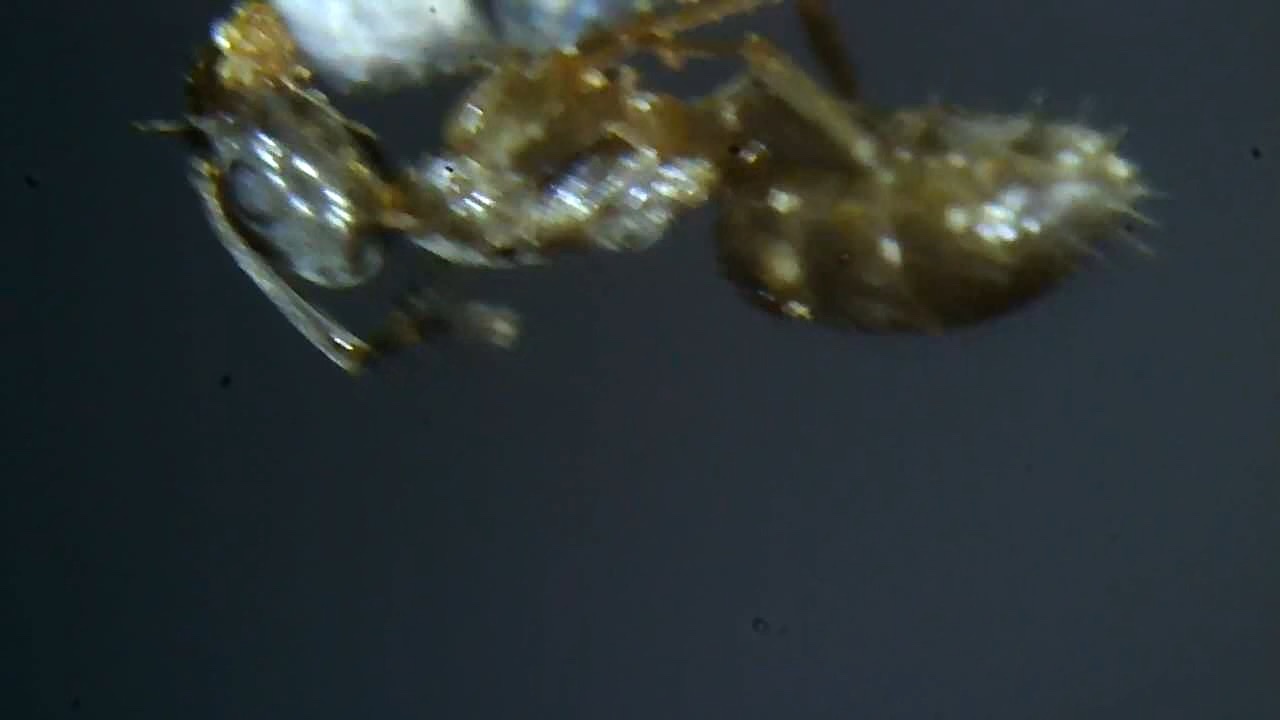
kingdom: Animalia
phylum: Arthropoda
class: Insecta
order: Hymenoptera
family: Formicidae
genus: Tapinoma
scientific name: Tapinoma sessile
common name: Odorous house ant
